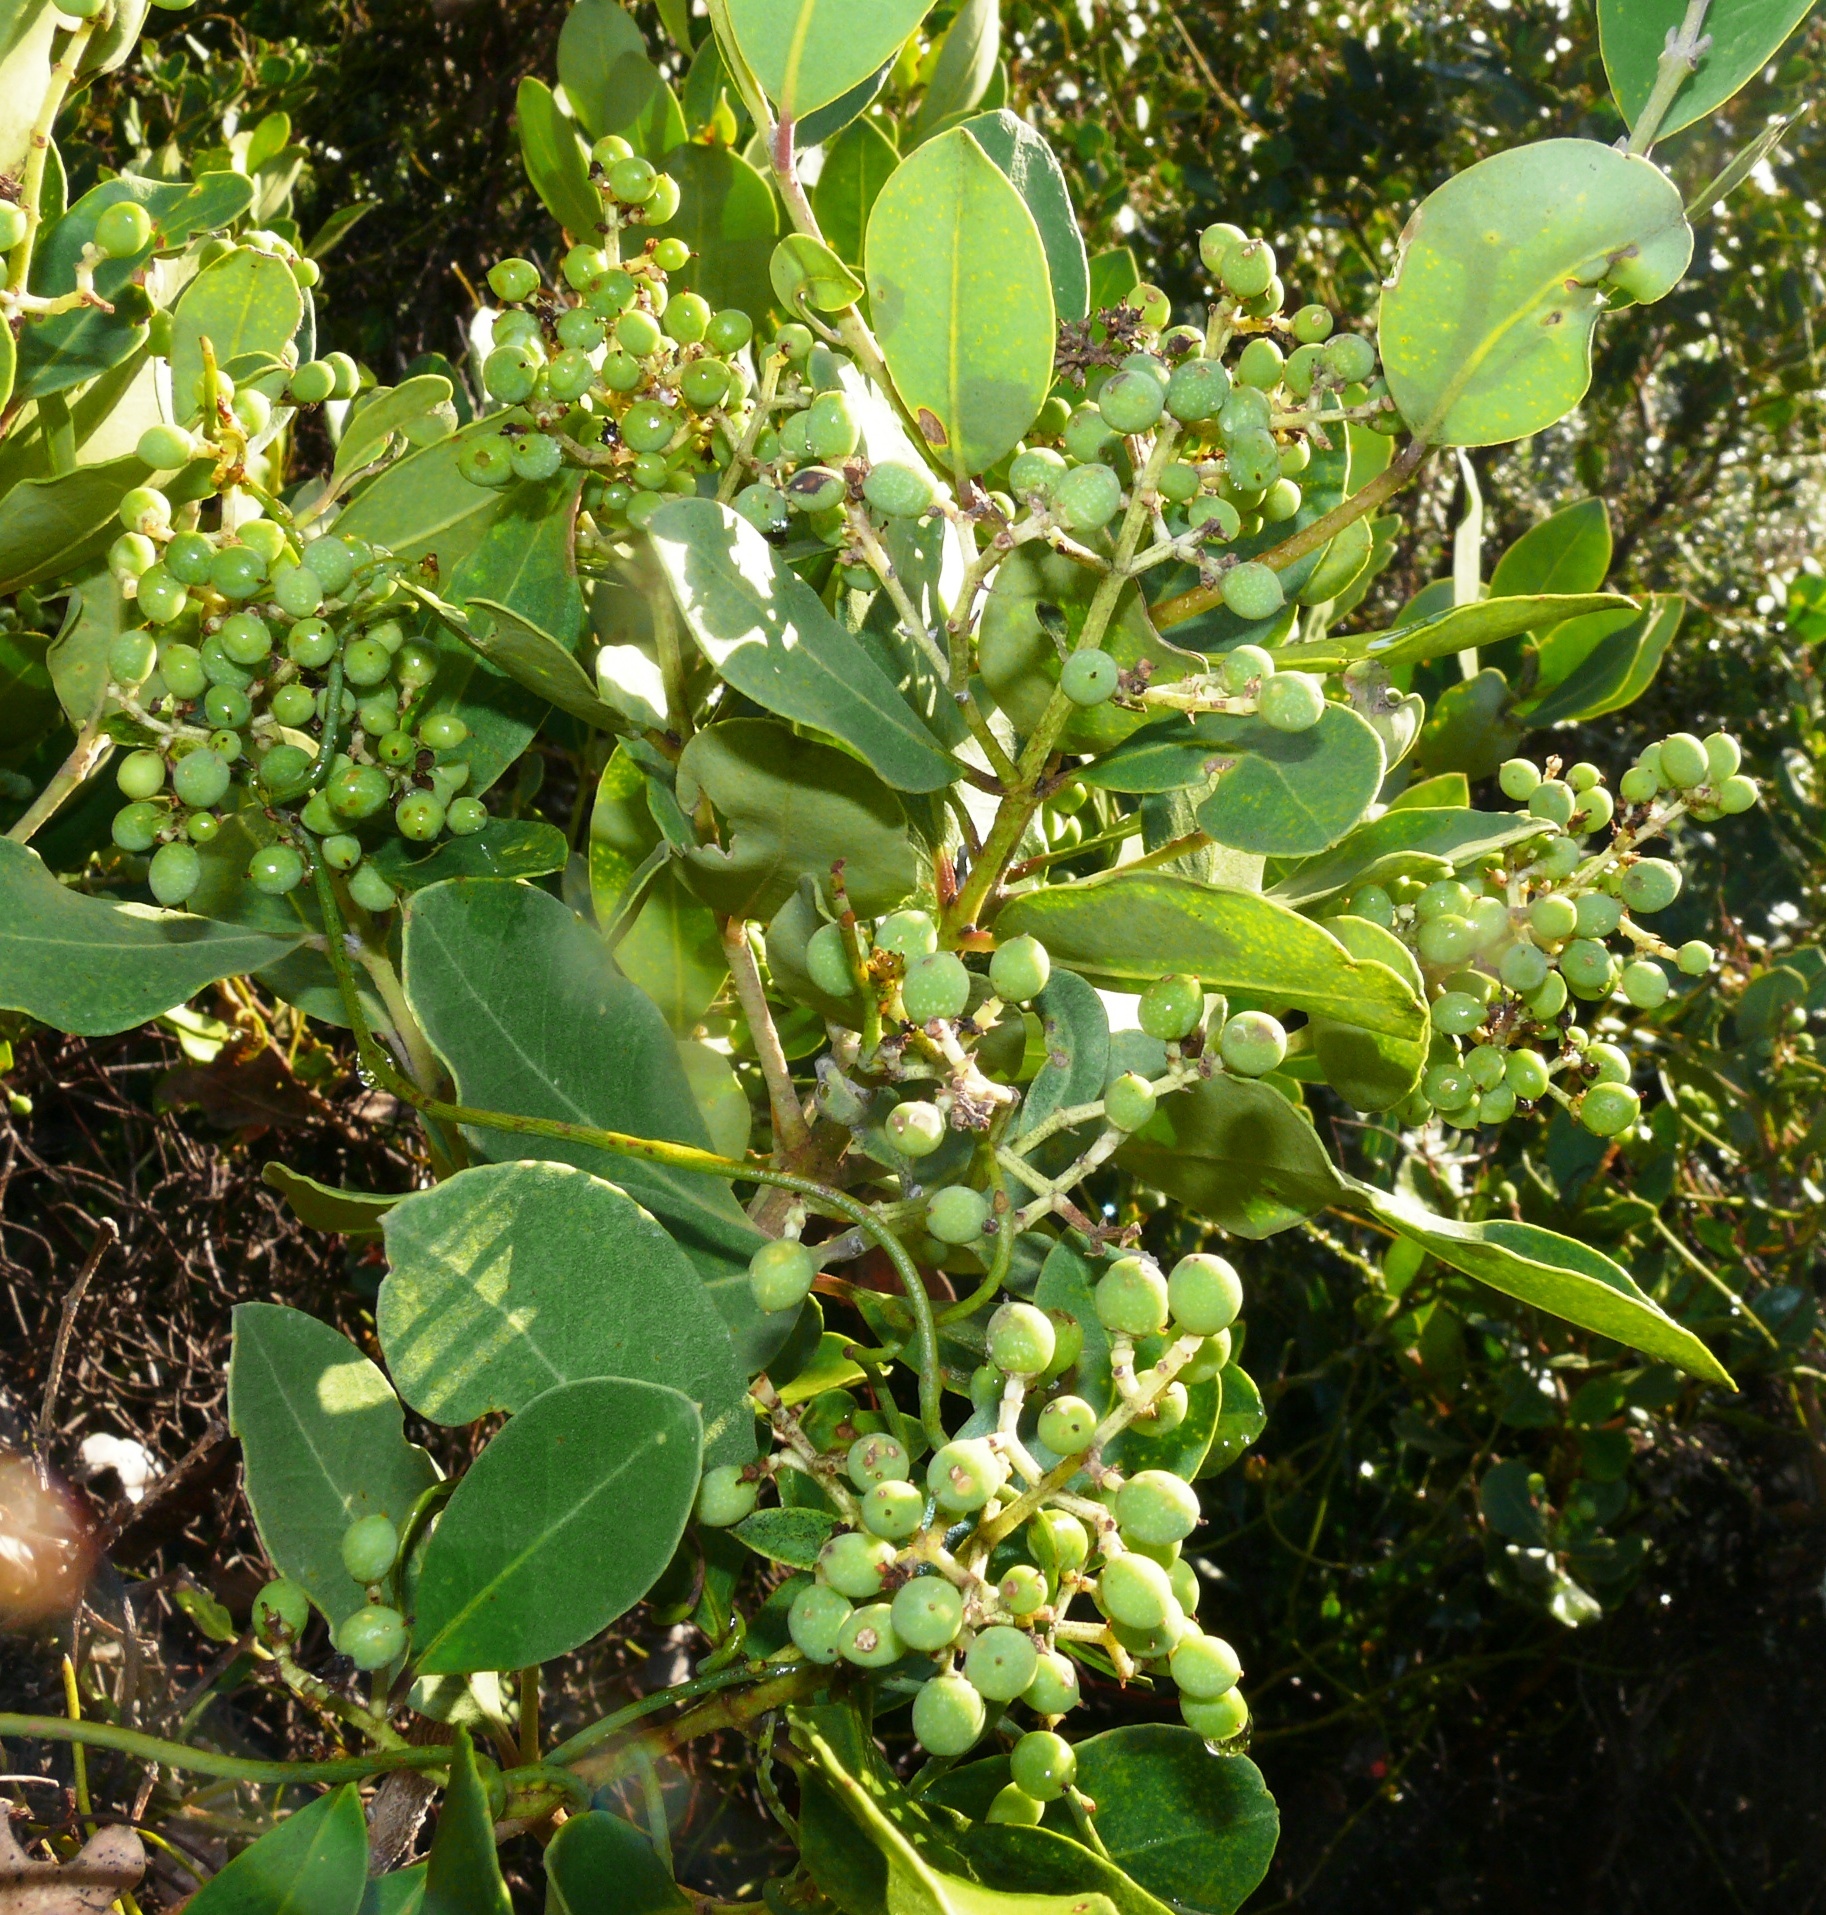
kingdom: Plantae
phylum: Tracheophyta
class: Magnoliopsida
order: Lamiales
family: Oleaceae
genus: Olea
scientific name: Olea capensis
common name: Black ironwood
